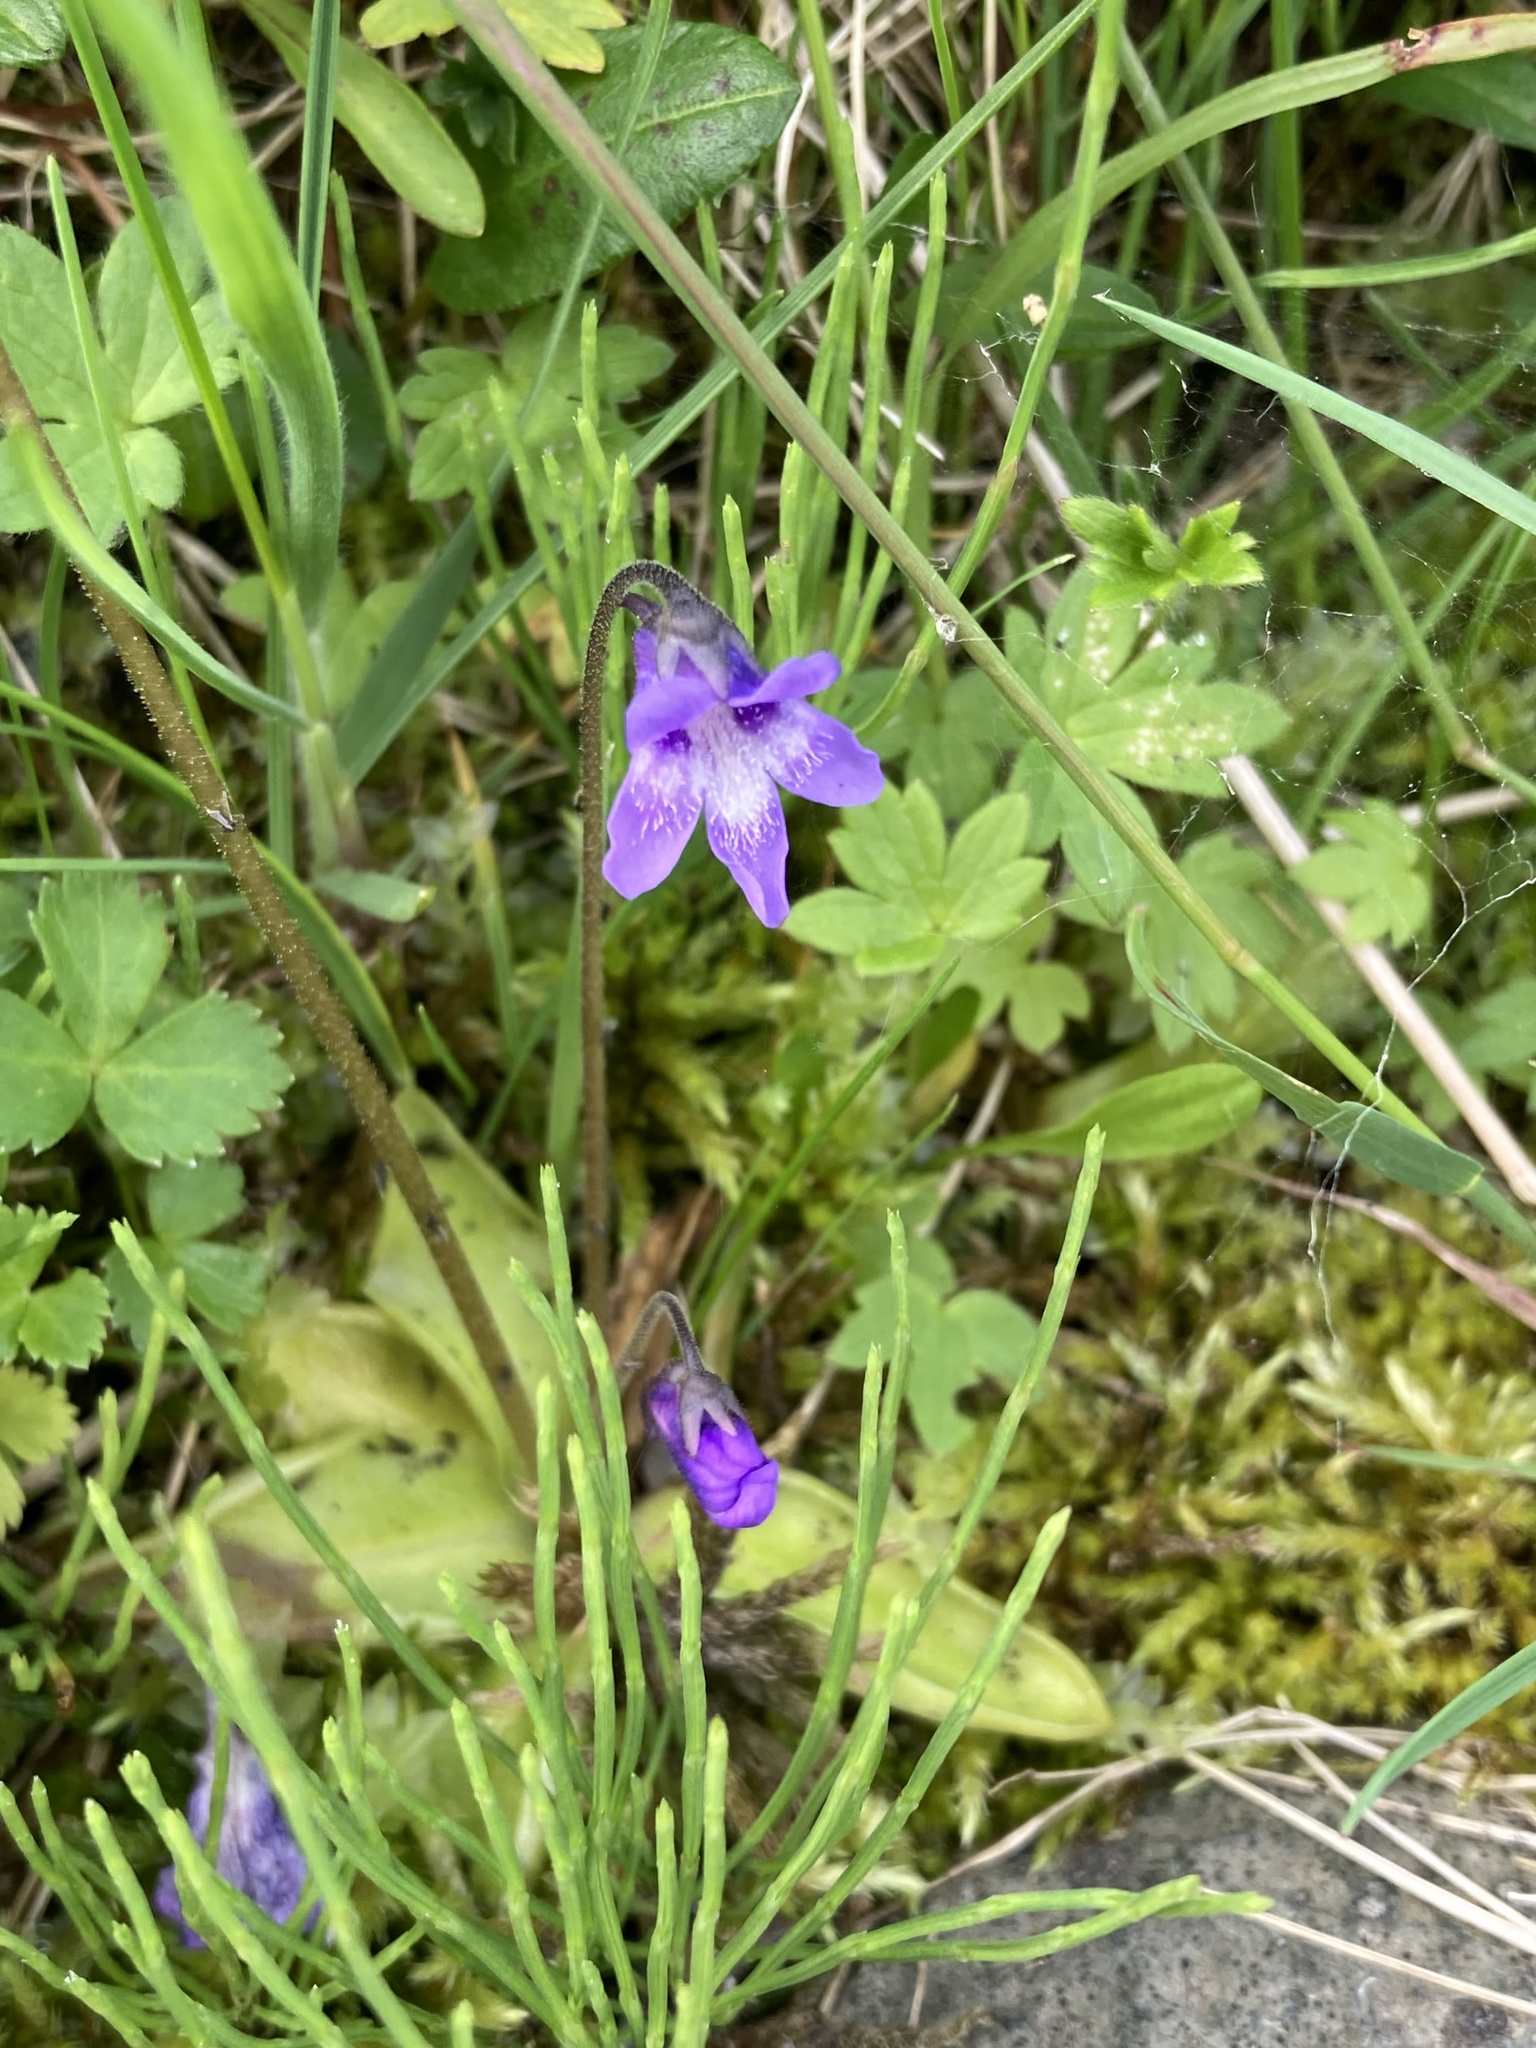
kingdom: Plantae
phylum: Tracheophyta
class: Magnoliopsida
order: Lamiales
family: Lentibulariaceae
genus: Pinguicula
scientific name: Pinguicula vulgaris
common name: Common butterwort
